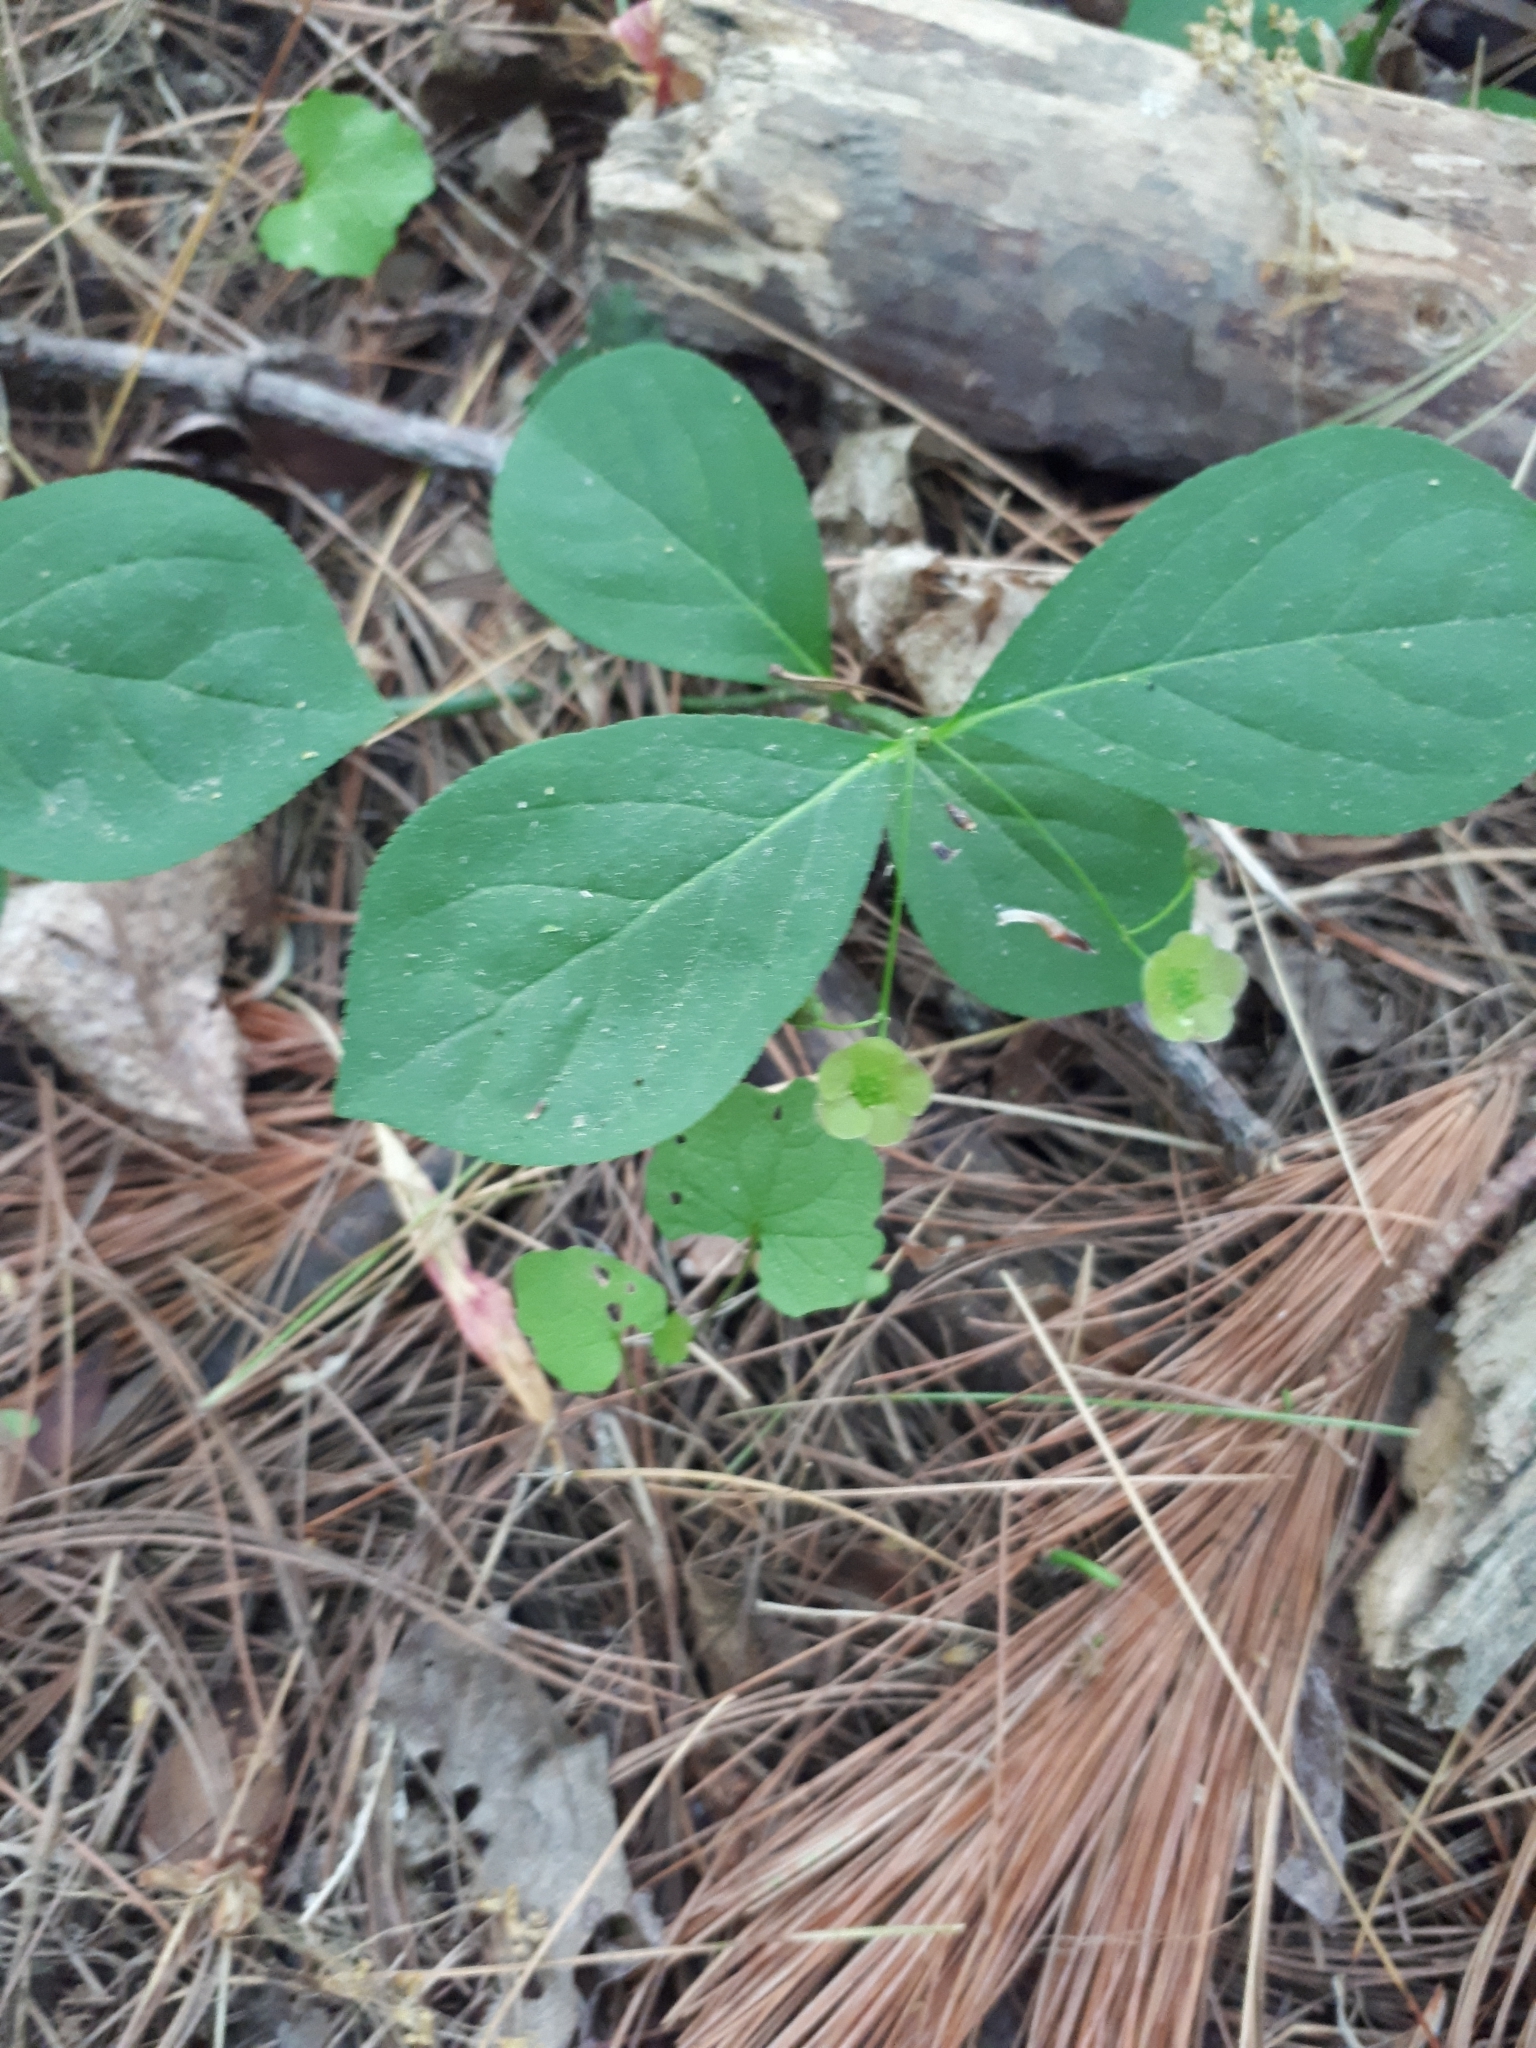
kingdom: Plantae
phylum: Tracheophyta
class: Magnoliopsida
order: Celastrales
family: Celastraceae
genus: Euonymus
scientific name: Euonymus obovatus
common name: Running strawberry-bush
